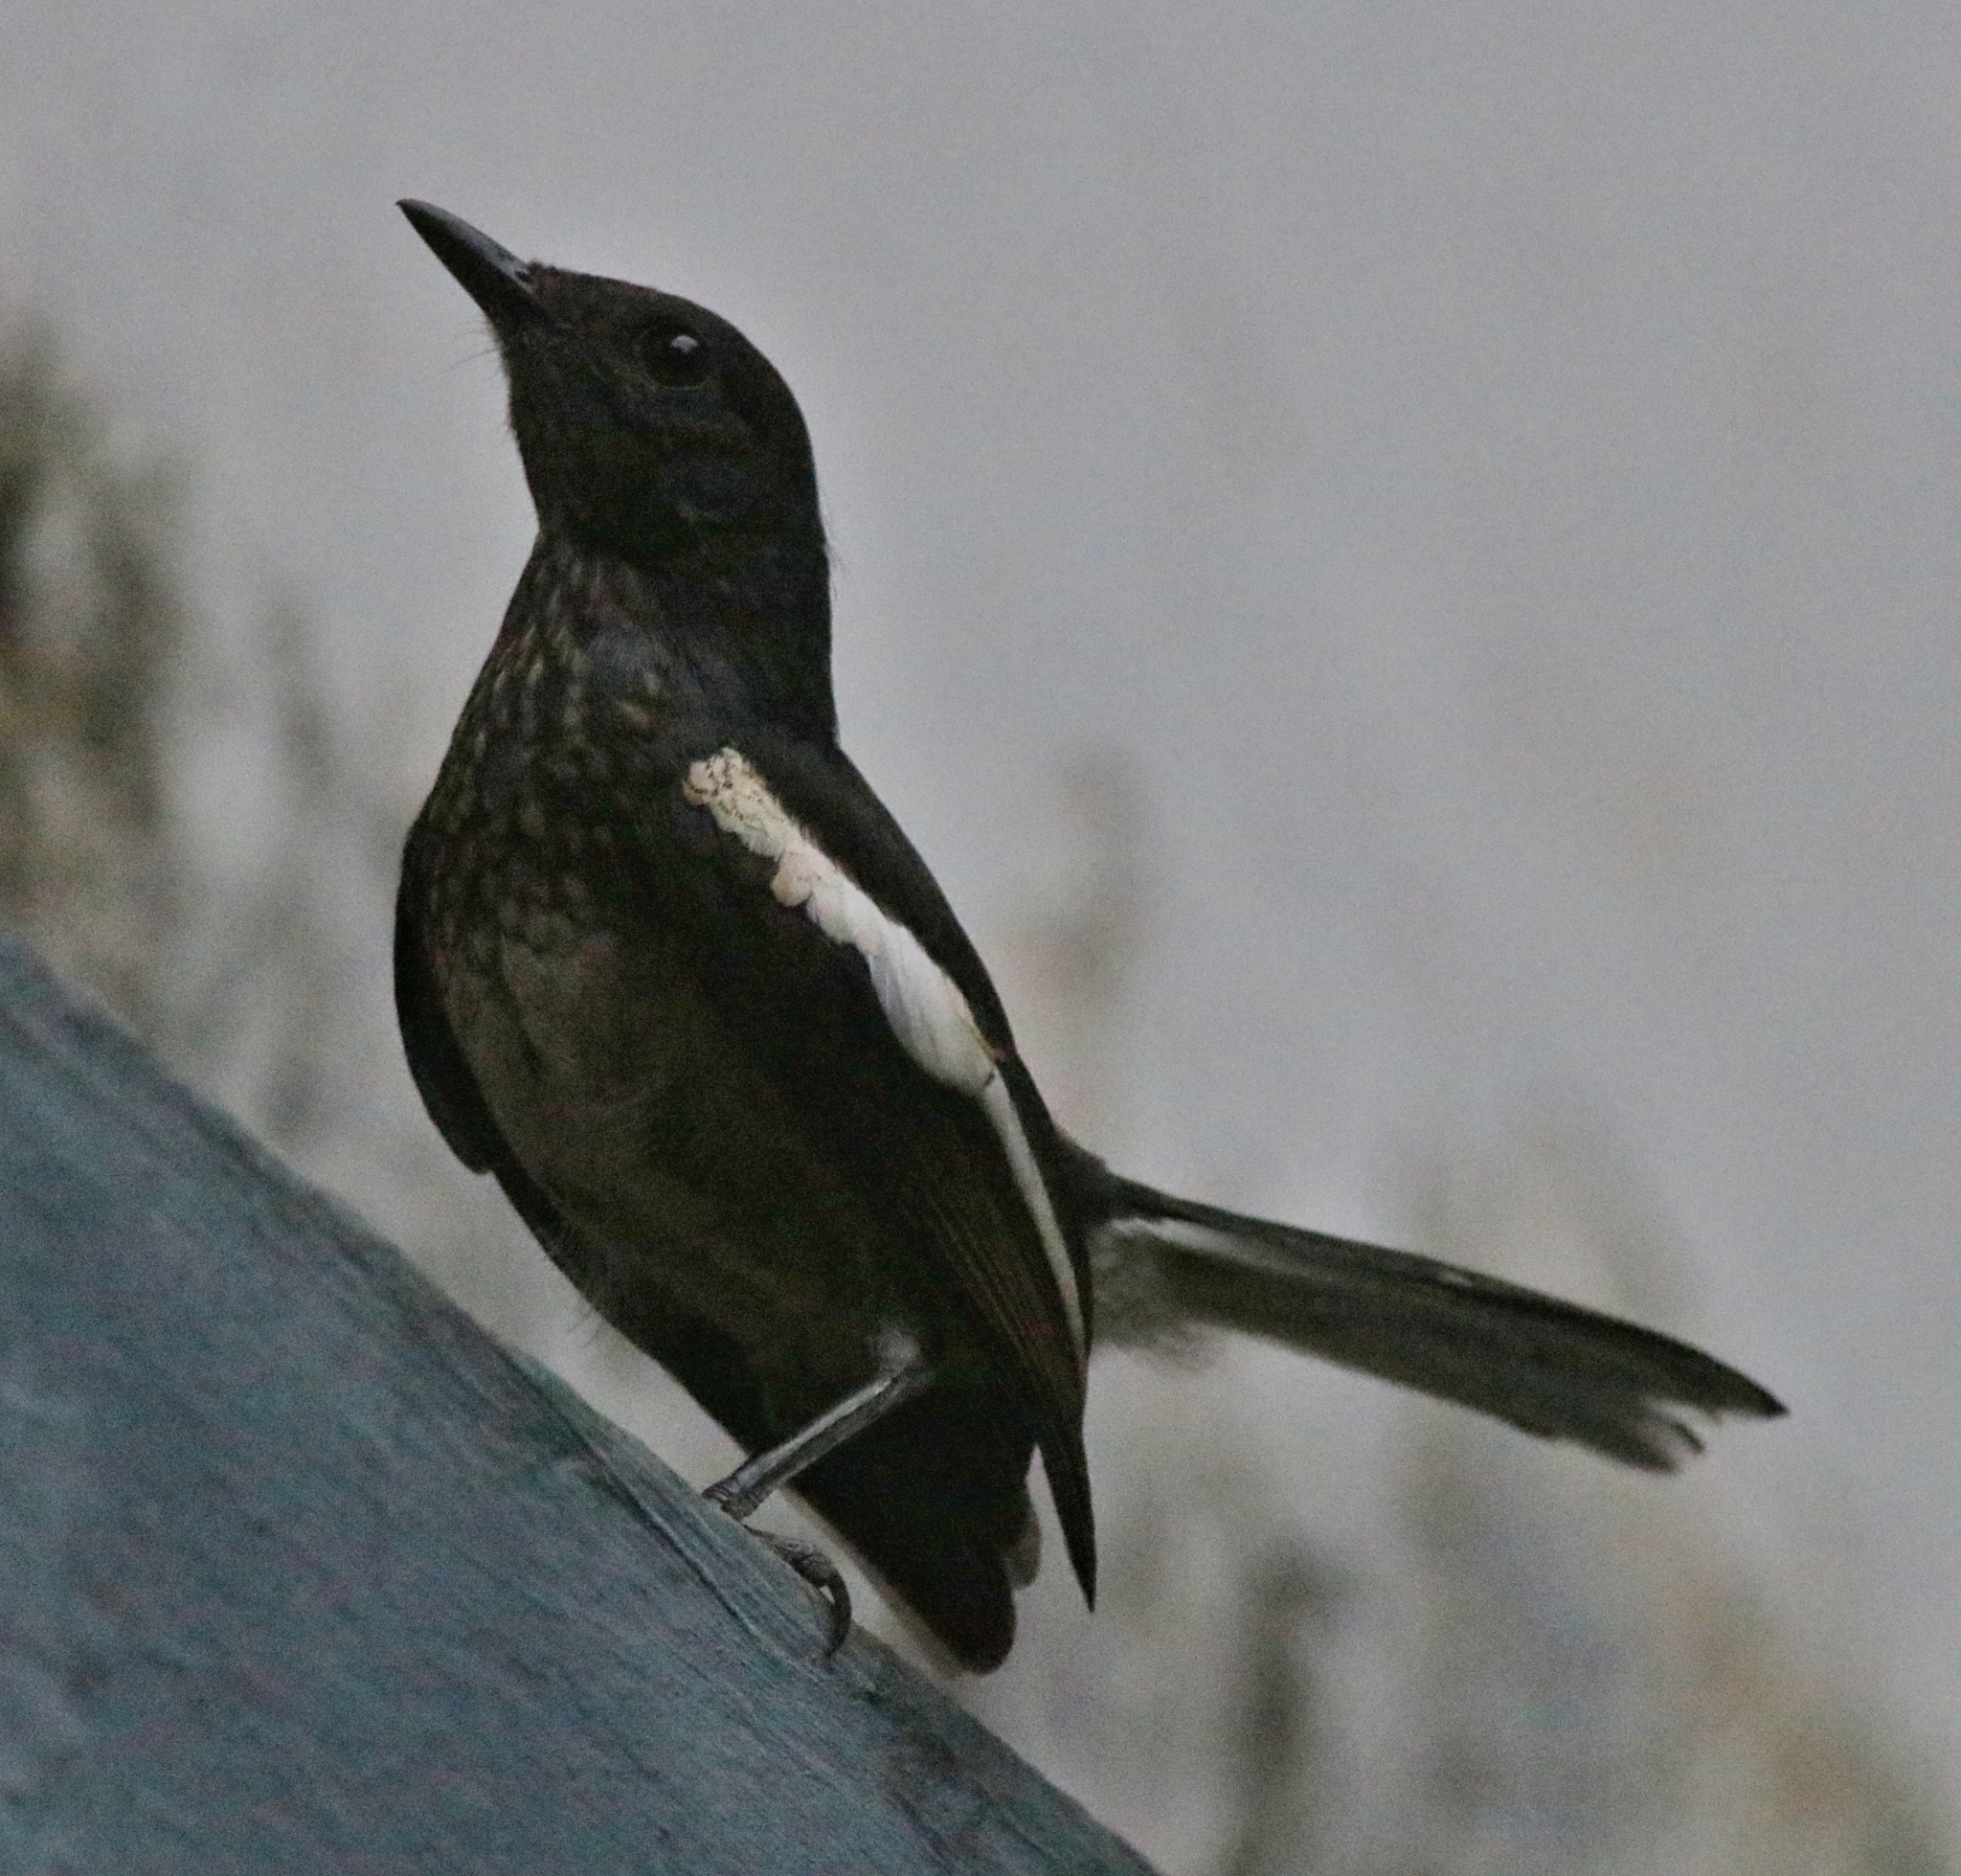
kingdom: Animalia
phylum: Chordata
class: Aves
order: Passeriformes
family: Muscicapidae
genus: Copsychus
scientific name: Copsychus saularis
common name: Oriental magpie-robin
